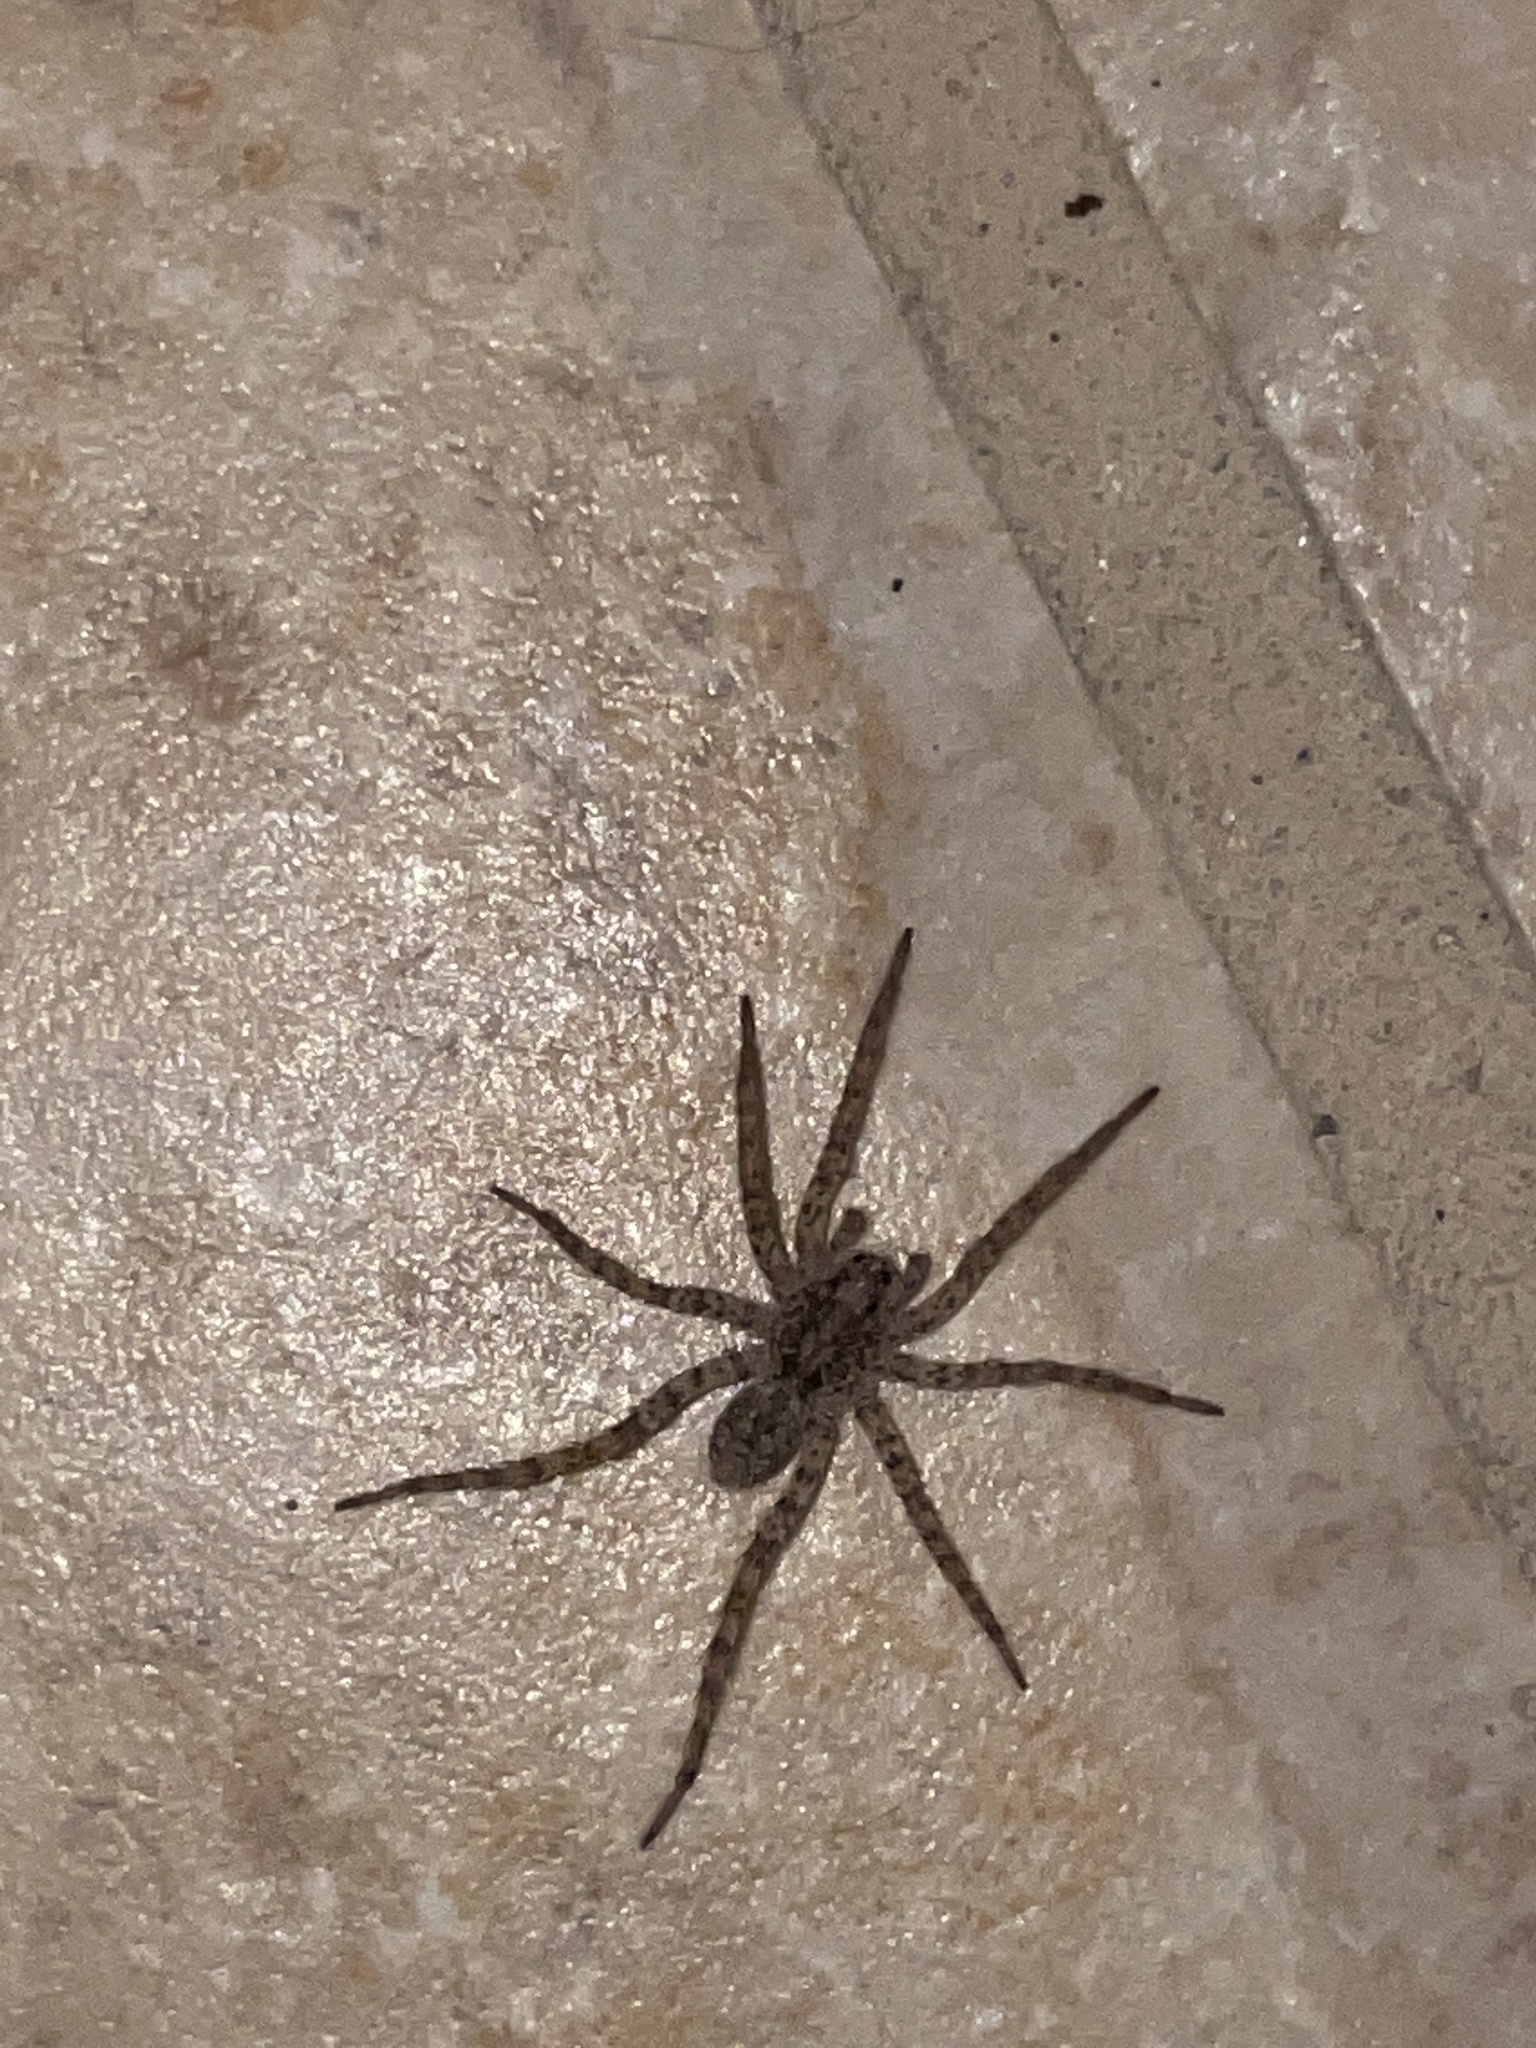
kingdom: Animalia
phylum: Arthropoda
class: Arachnida
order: Araneae
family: Lycosidae
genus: Hogna
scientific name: Hogna antelucana
